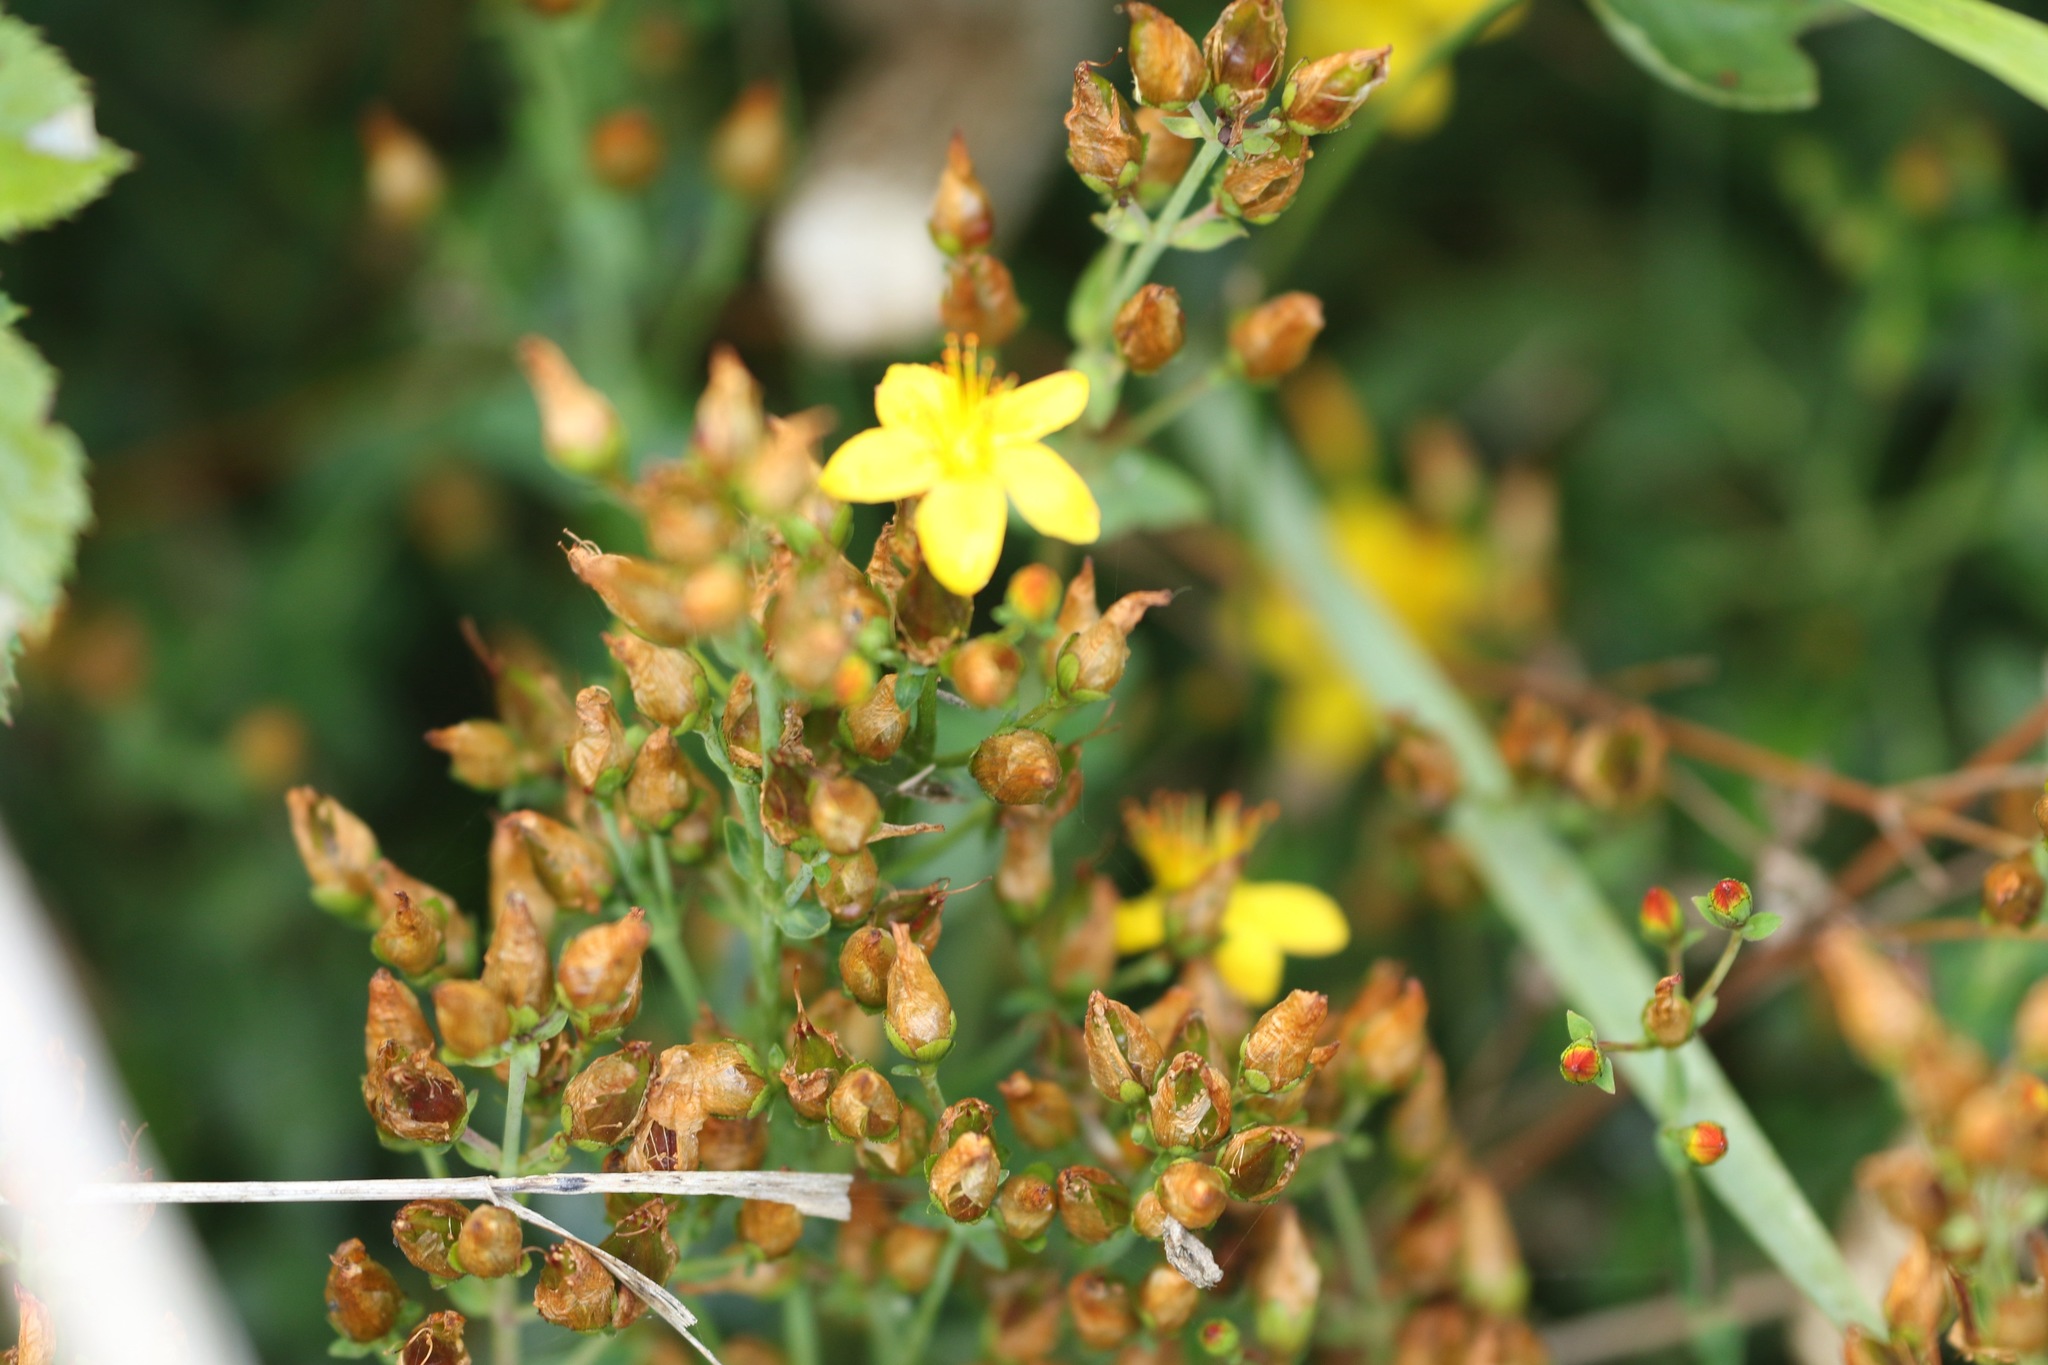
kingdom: Plantae
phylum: Tracheophyta
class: Magnoliopsida
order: Malpighiales
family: Hypericaceae
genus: Hypericum
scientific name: Hypericum pulchrum
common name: Slender st. john's-wort
